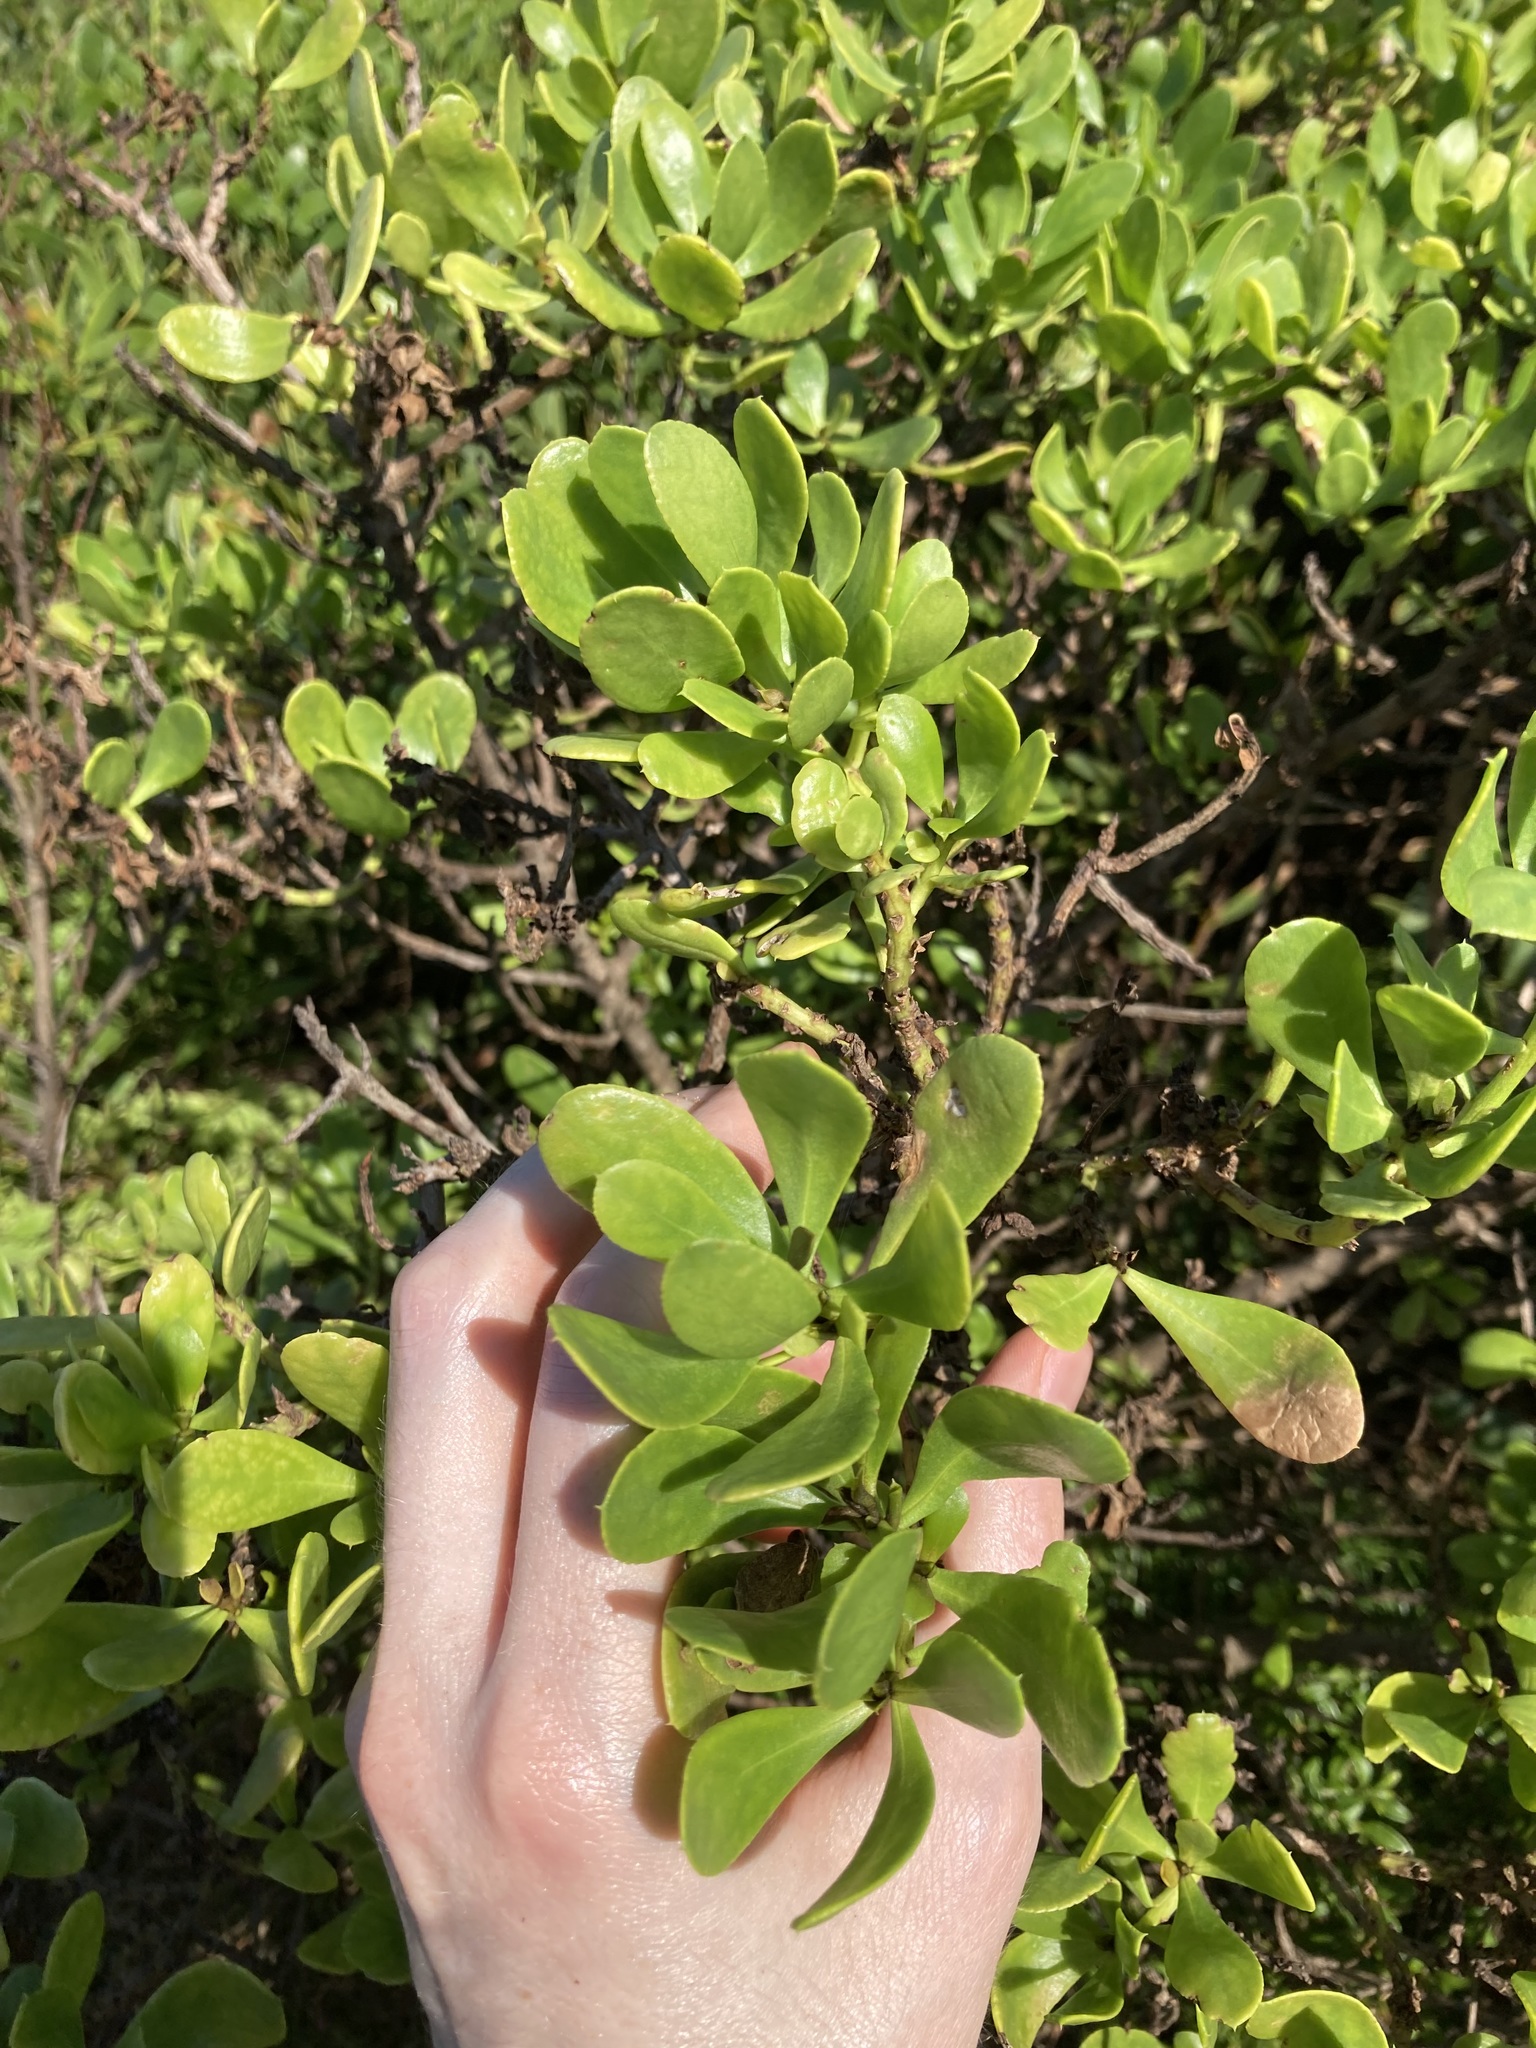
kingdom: Plantae
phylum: Tracheophyta
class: Magnoliopsida
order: Asterales
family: Asteraceae
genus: Osteospermum
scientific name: Osteospermum moniliferum
